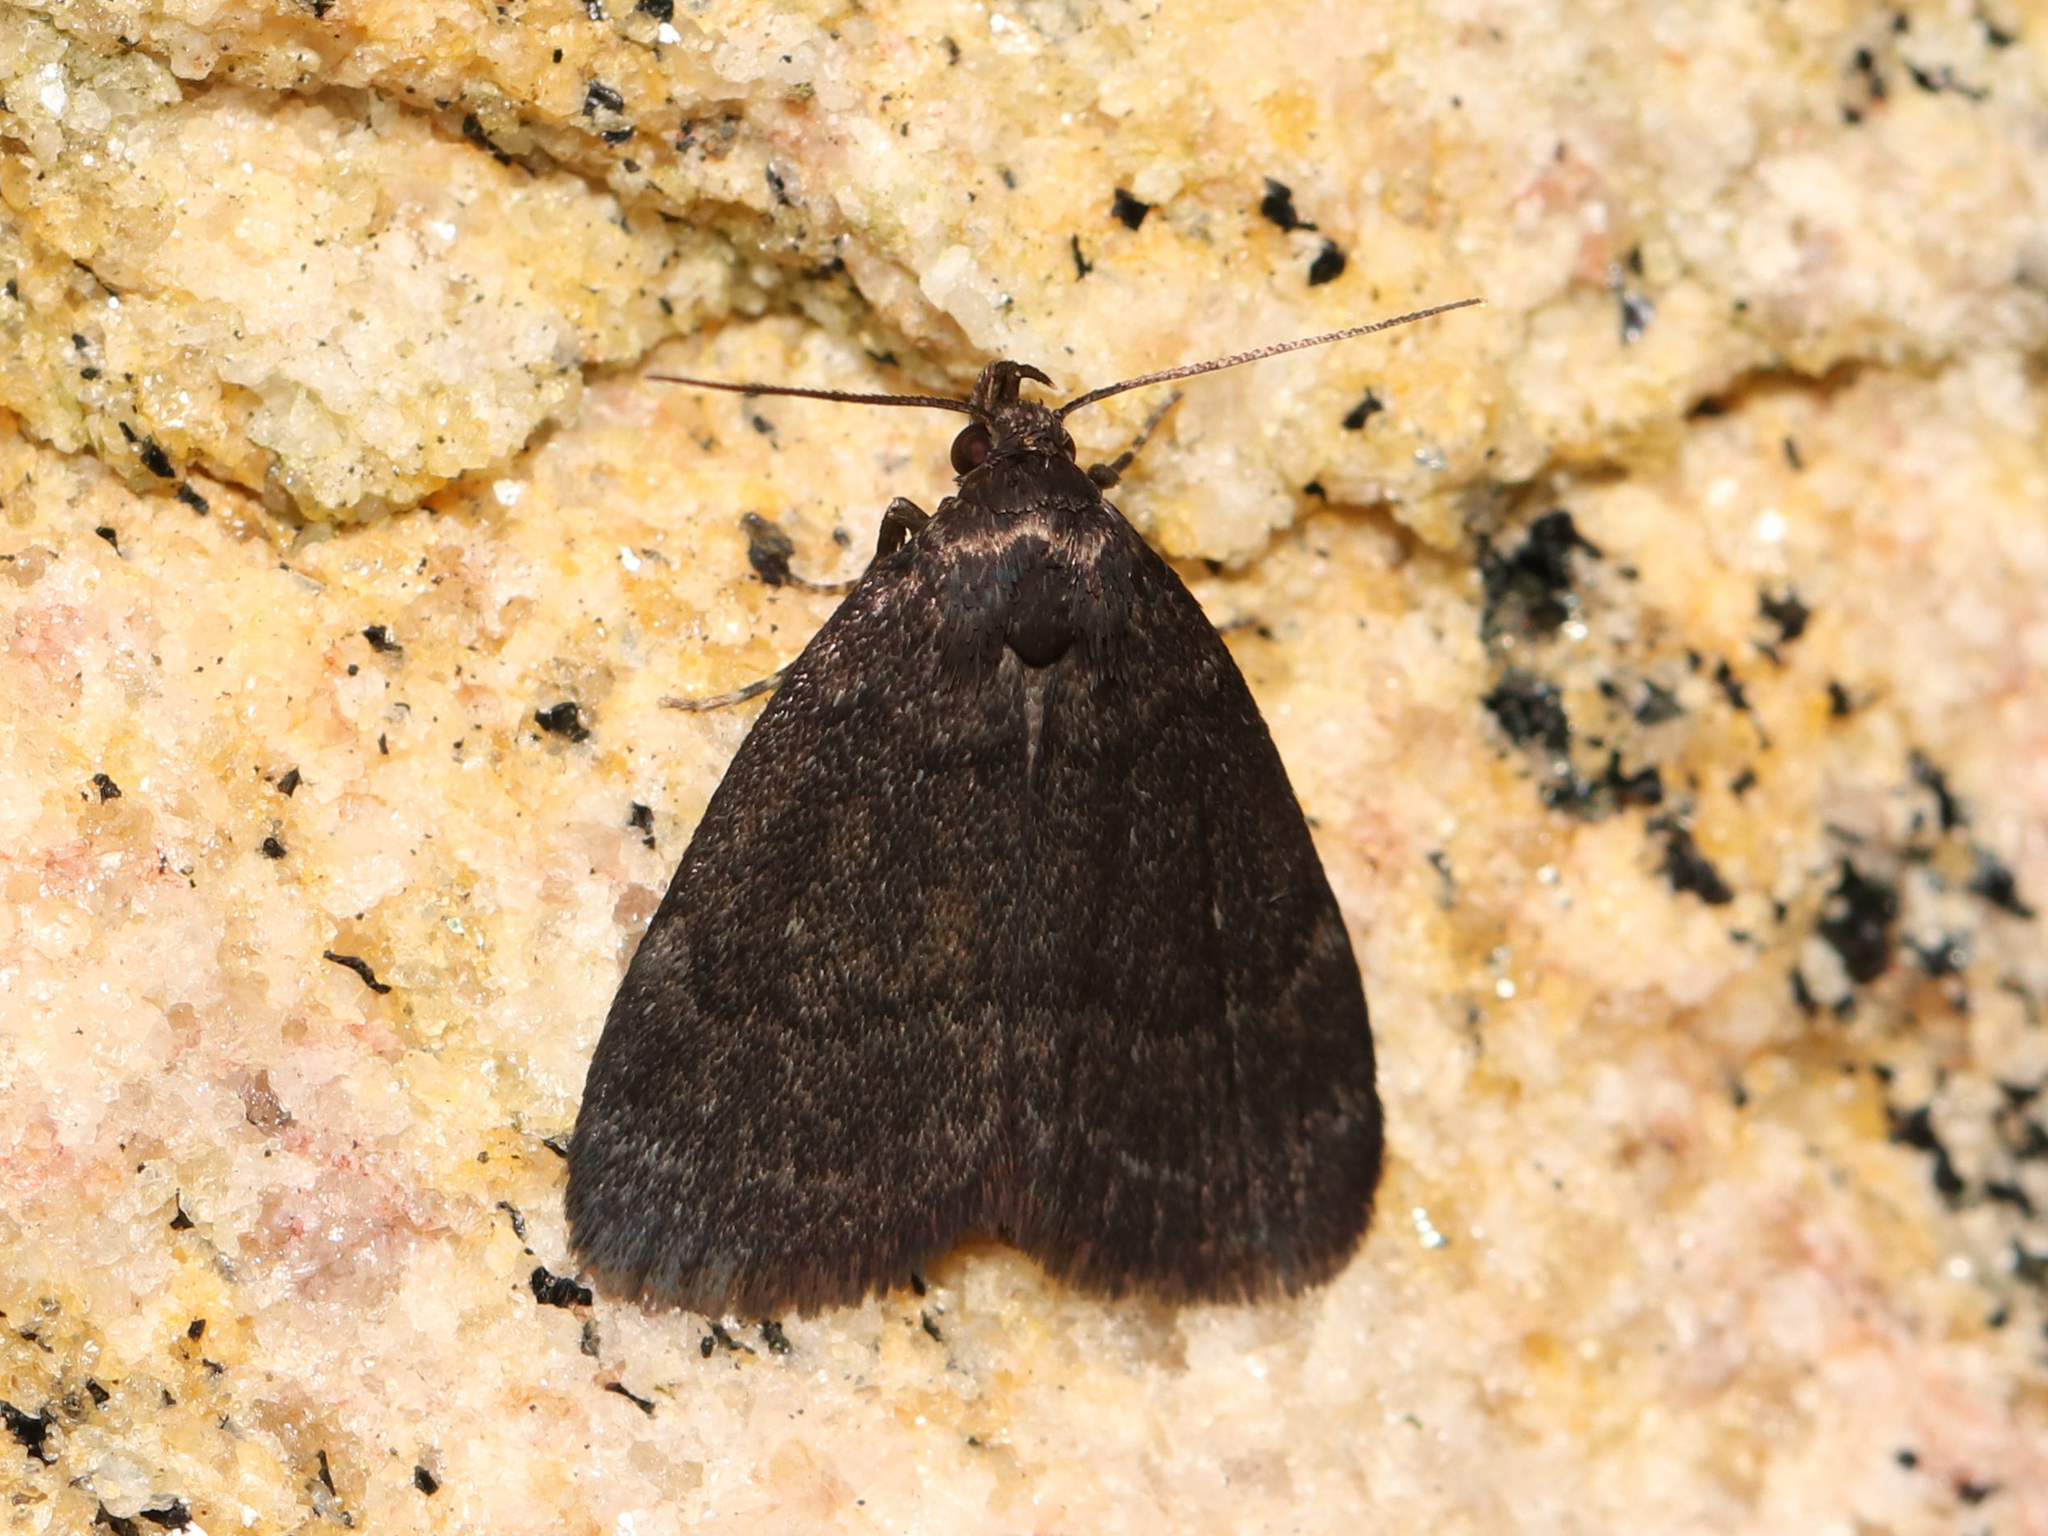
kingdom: Animalia
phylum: Arthropoda
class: Insecta
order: Lepidoptera
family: Erebidae
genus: Idia
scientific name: Idia rotundalis
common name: Rotund idia moth
